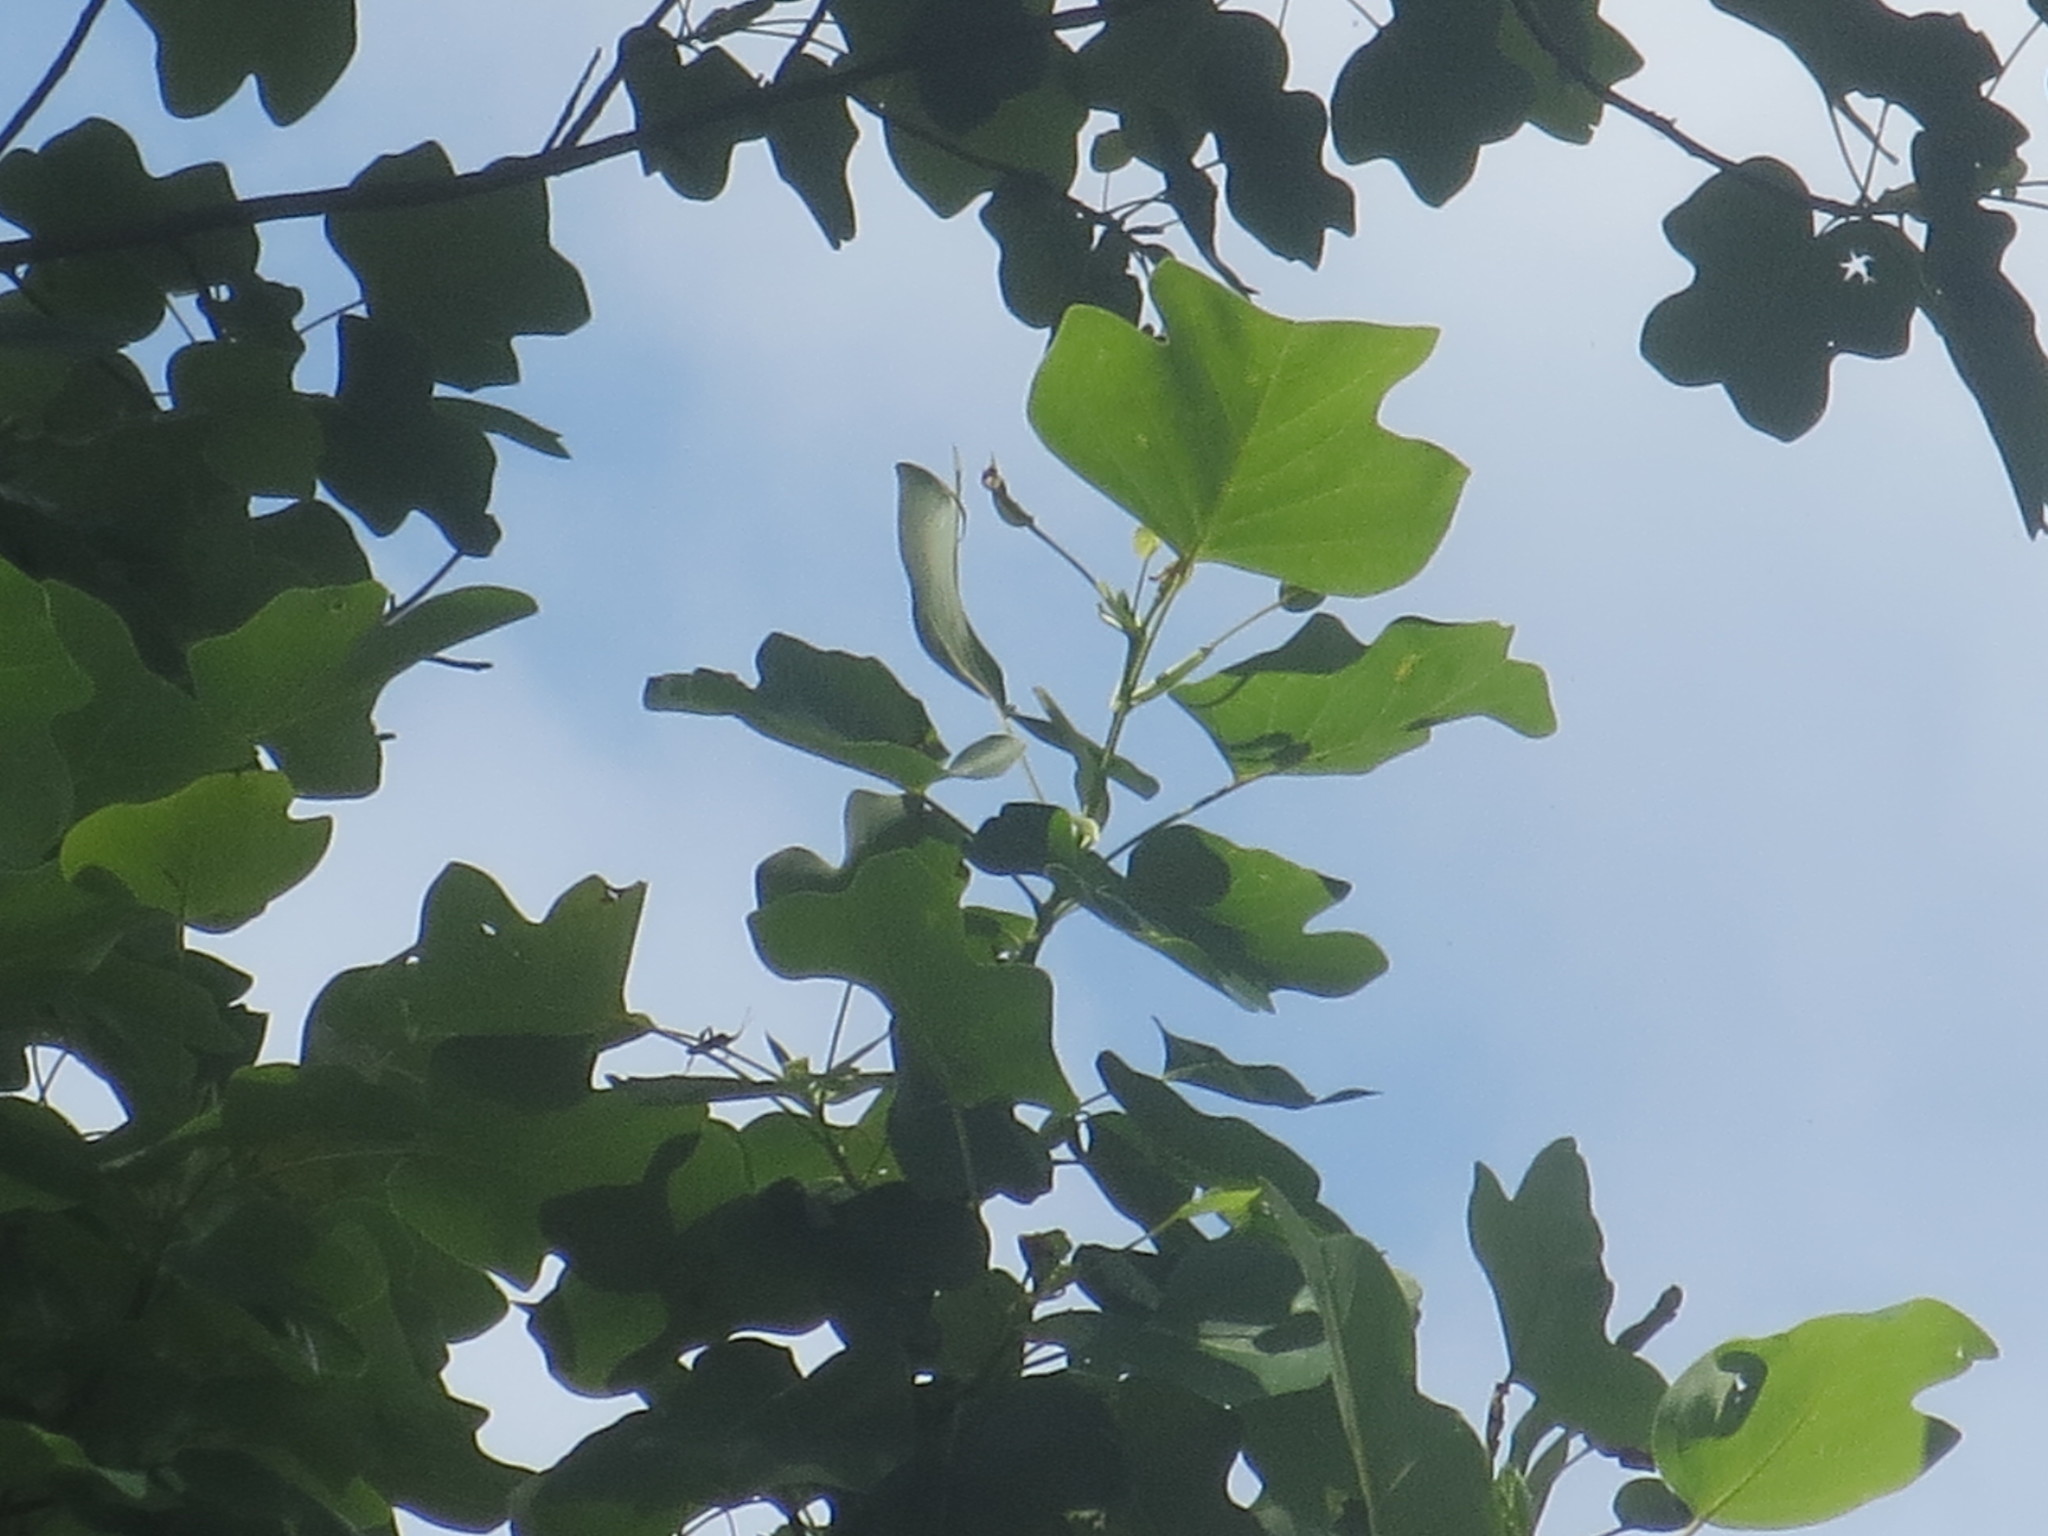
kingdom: Plantae
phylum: Tracheophyta
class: Magnoliopsida
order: Magnoliales
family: Magnoliaceae
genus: Liriodendron
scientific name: Liriodendron tulipifera
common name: Tulip tree
